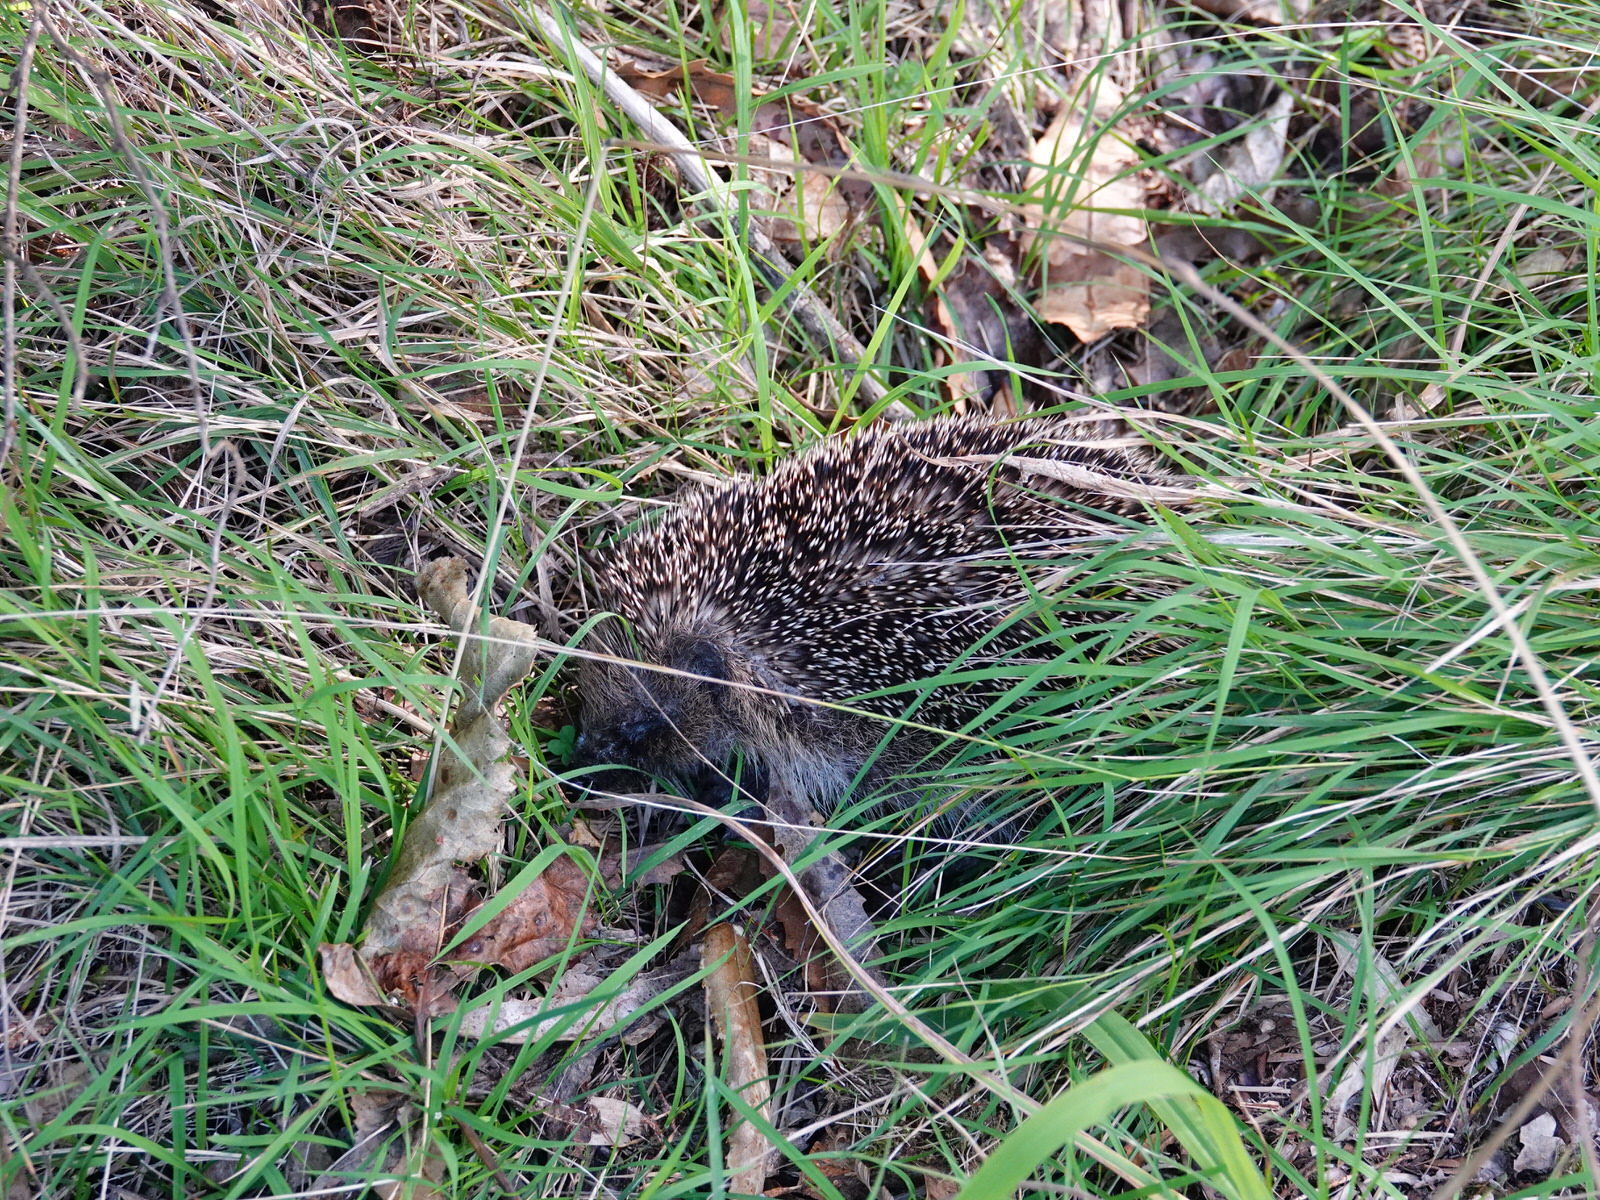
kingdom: Animalia
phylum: Chordata
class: Mammalia
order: Erinaceomorpha
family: Erinaceidae
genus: Erinaceus
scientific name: Erinaceus europaeus
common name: West european hedgehog
